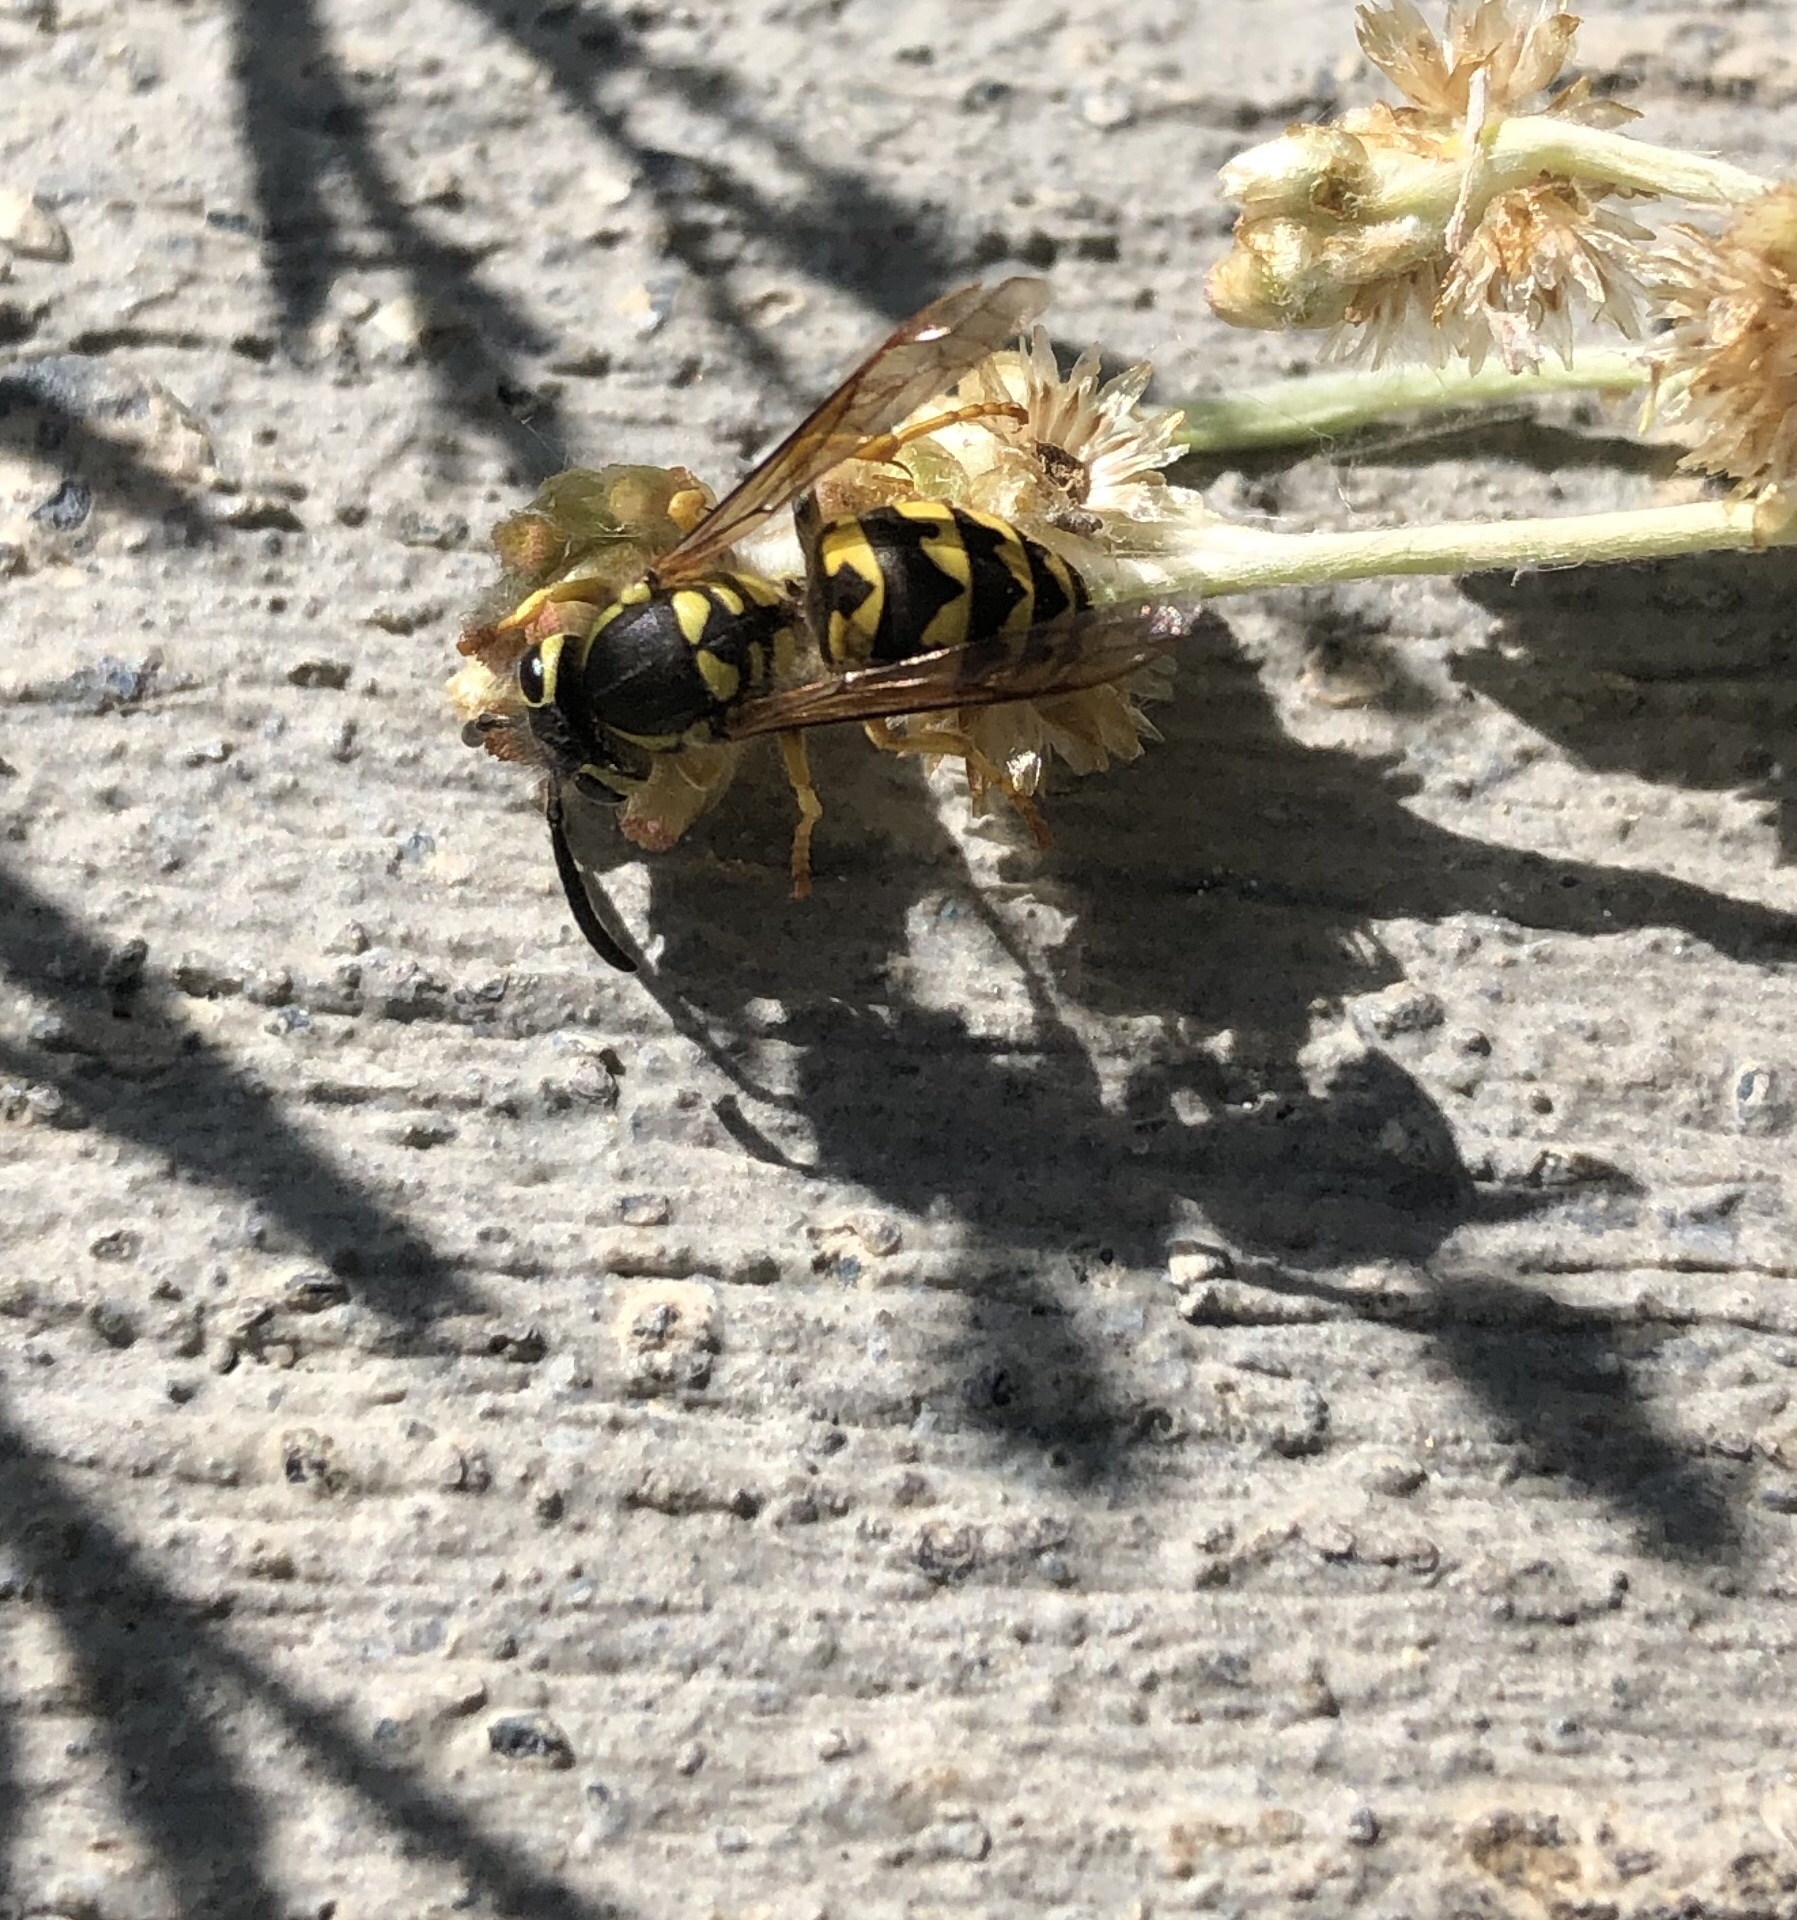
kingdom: Animalia
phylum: Arthropoda
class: Insecta
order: Hymenoptera
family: Vespidae
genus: Vespula
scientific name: Vespula pensylvanica
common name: Western yellowjacket
